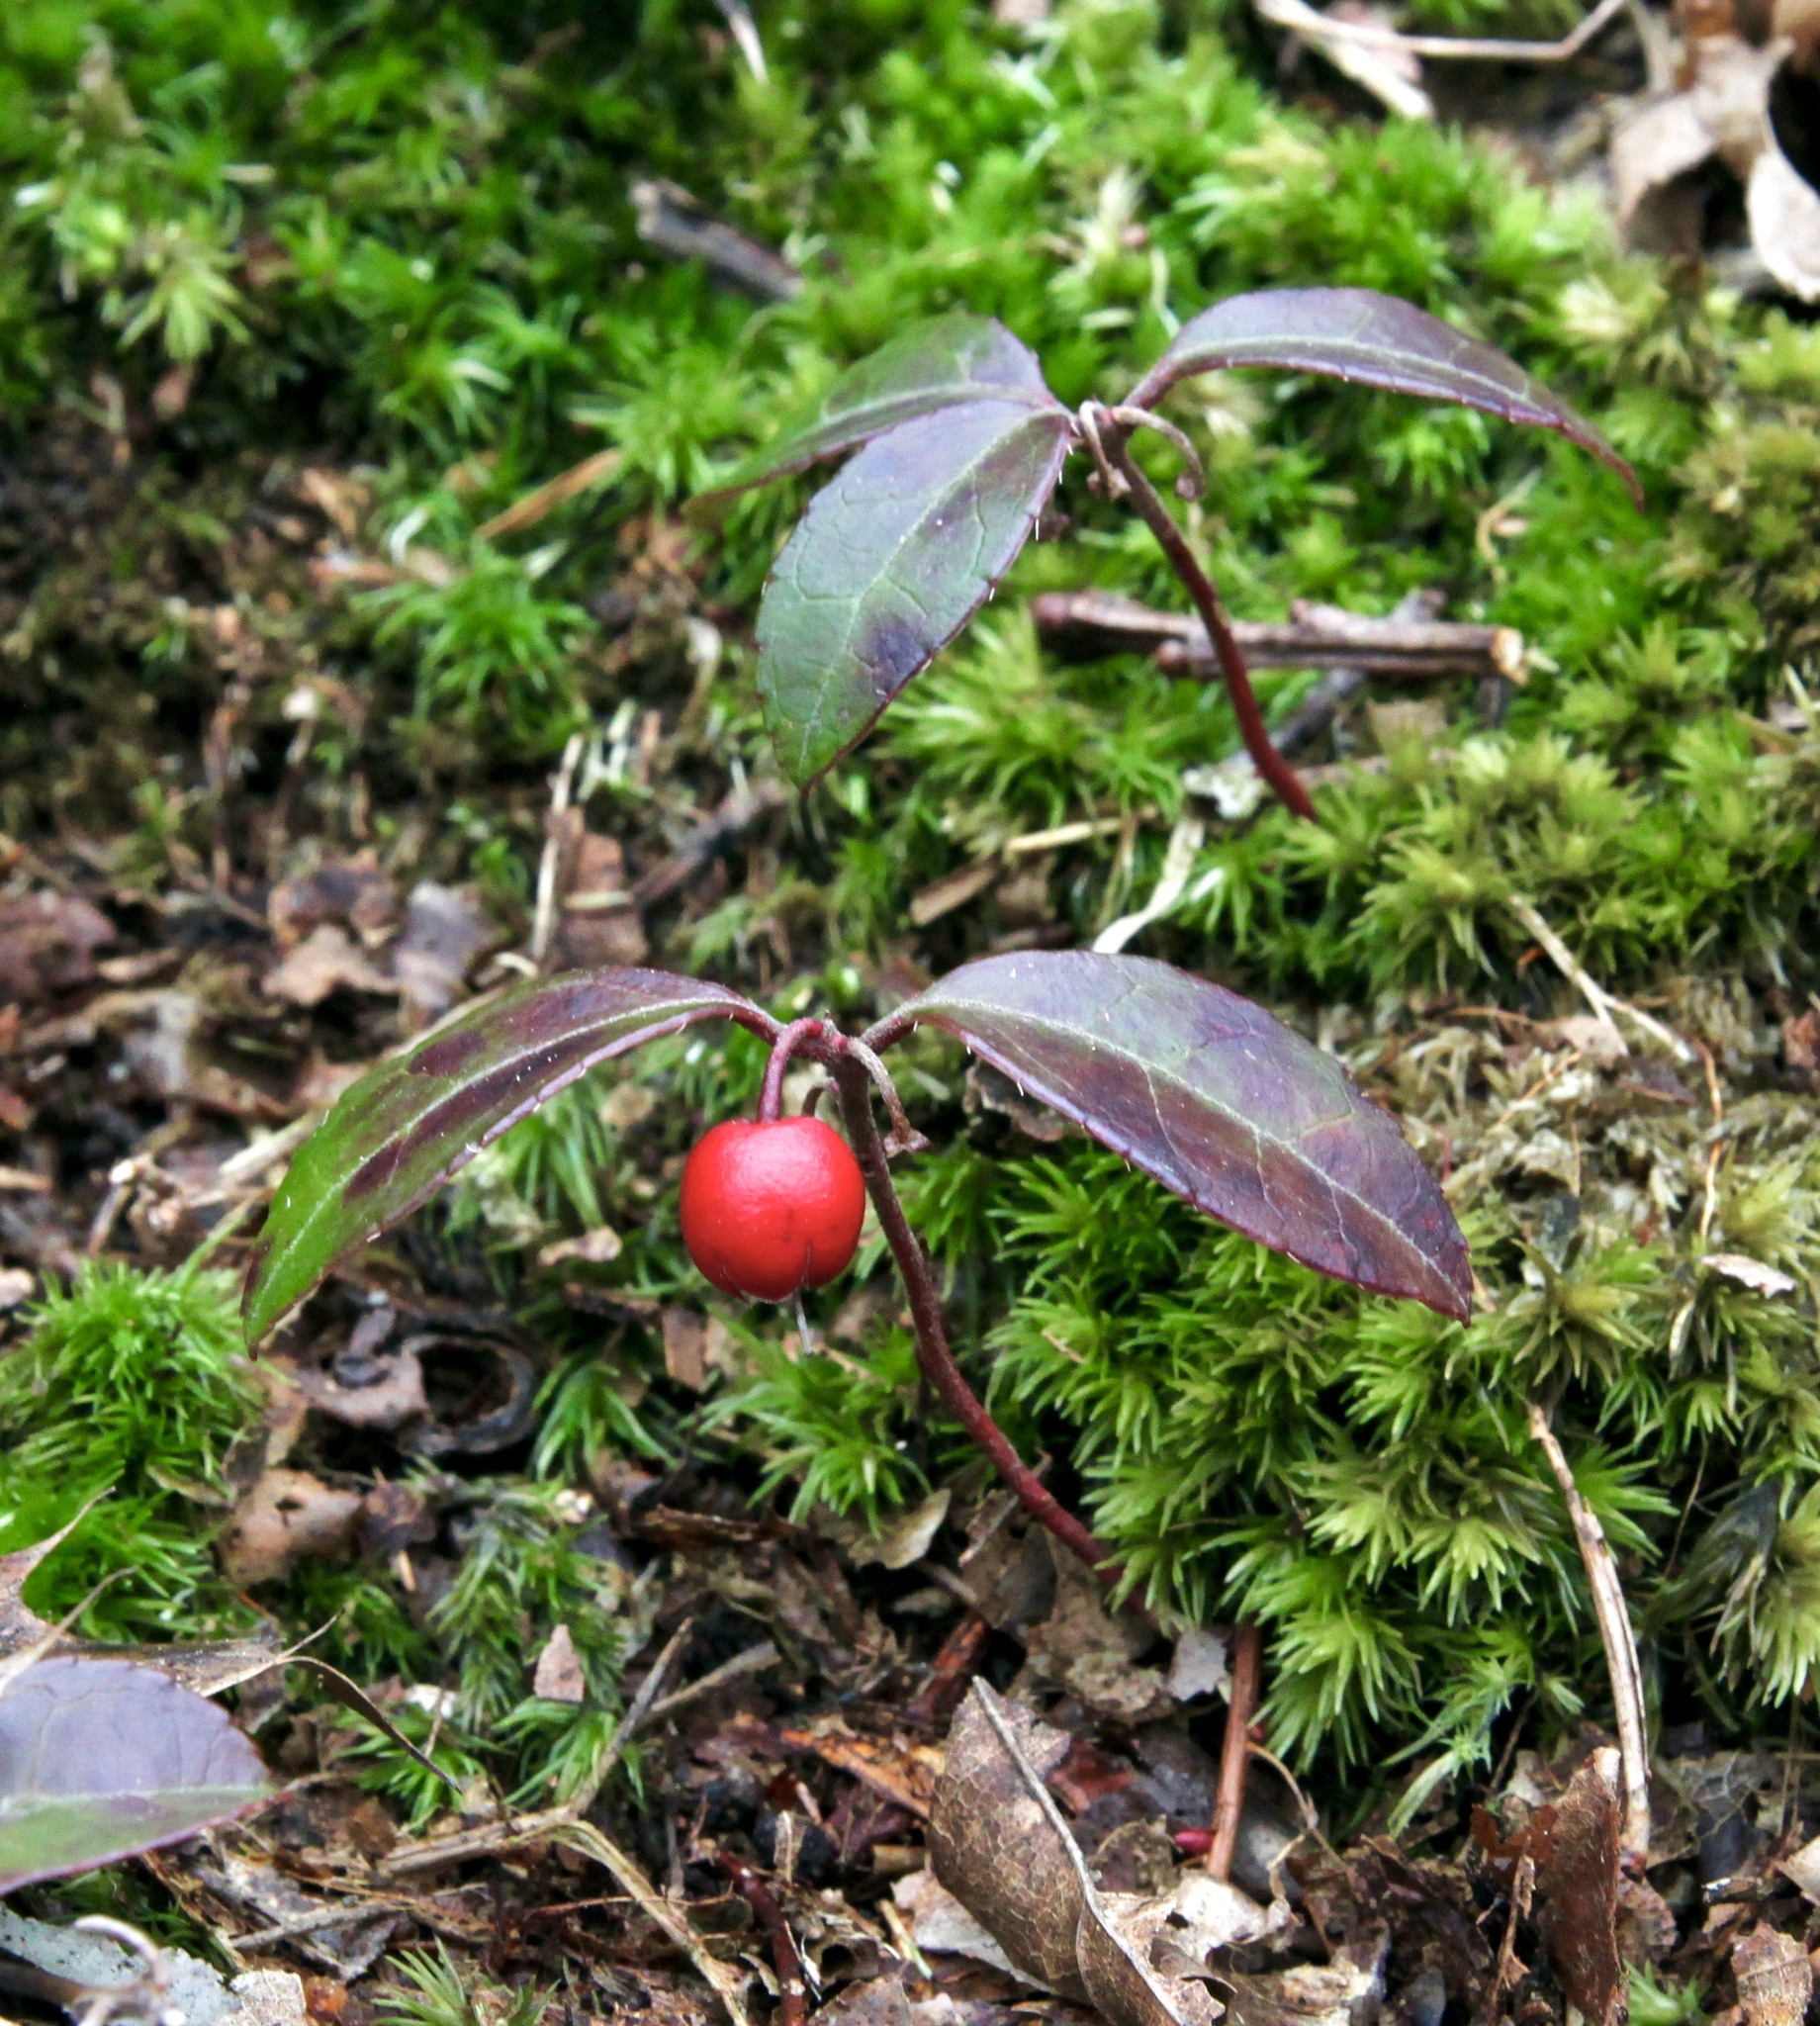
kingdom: Plantae
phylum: Tracheophyta
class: Magnoliopsida
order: Ericales
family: Ericaceae
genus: Gaultheria
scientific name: Gaultheria procumbens
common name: Checkerberry
